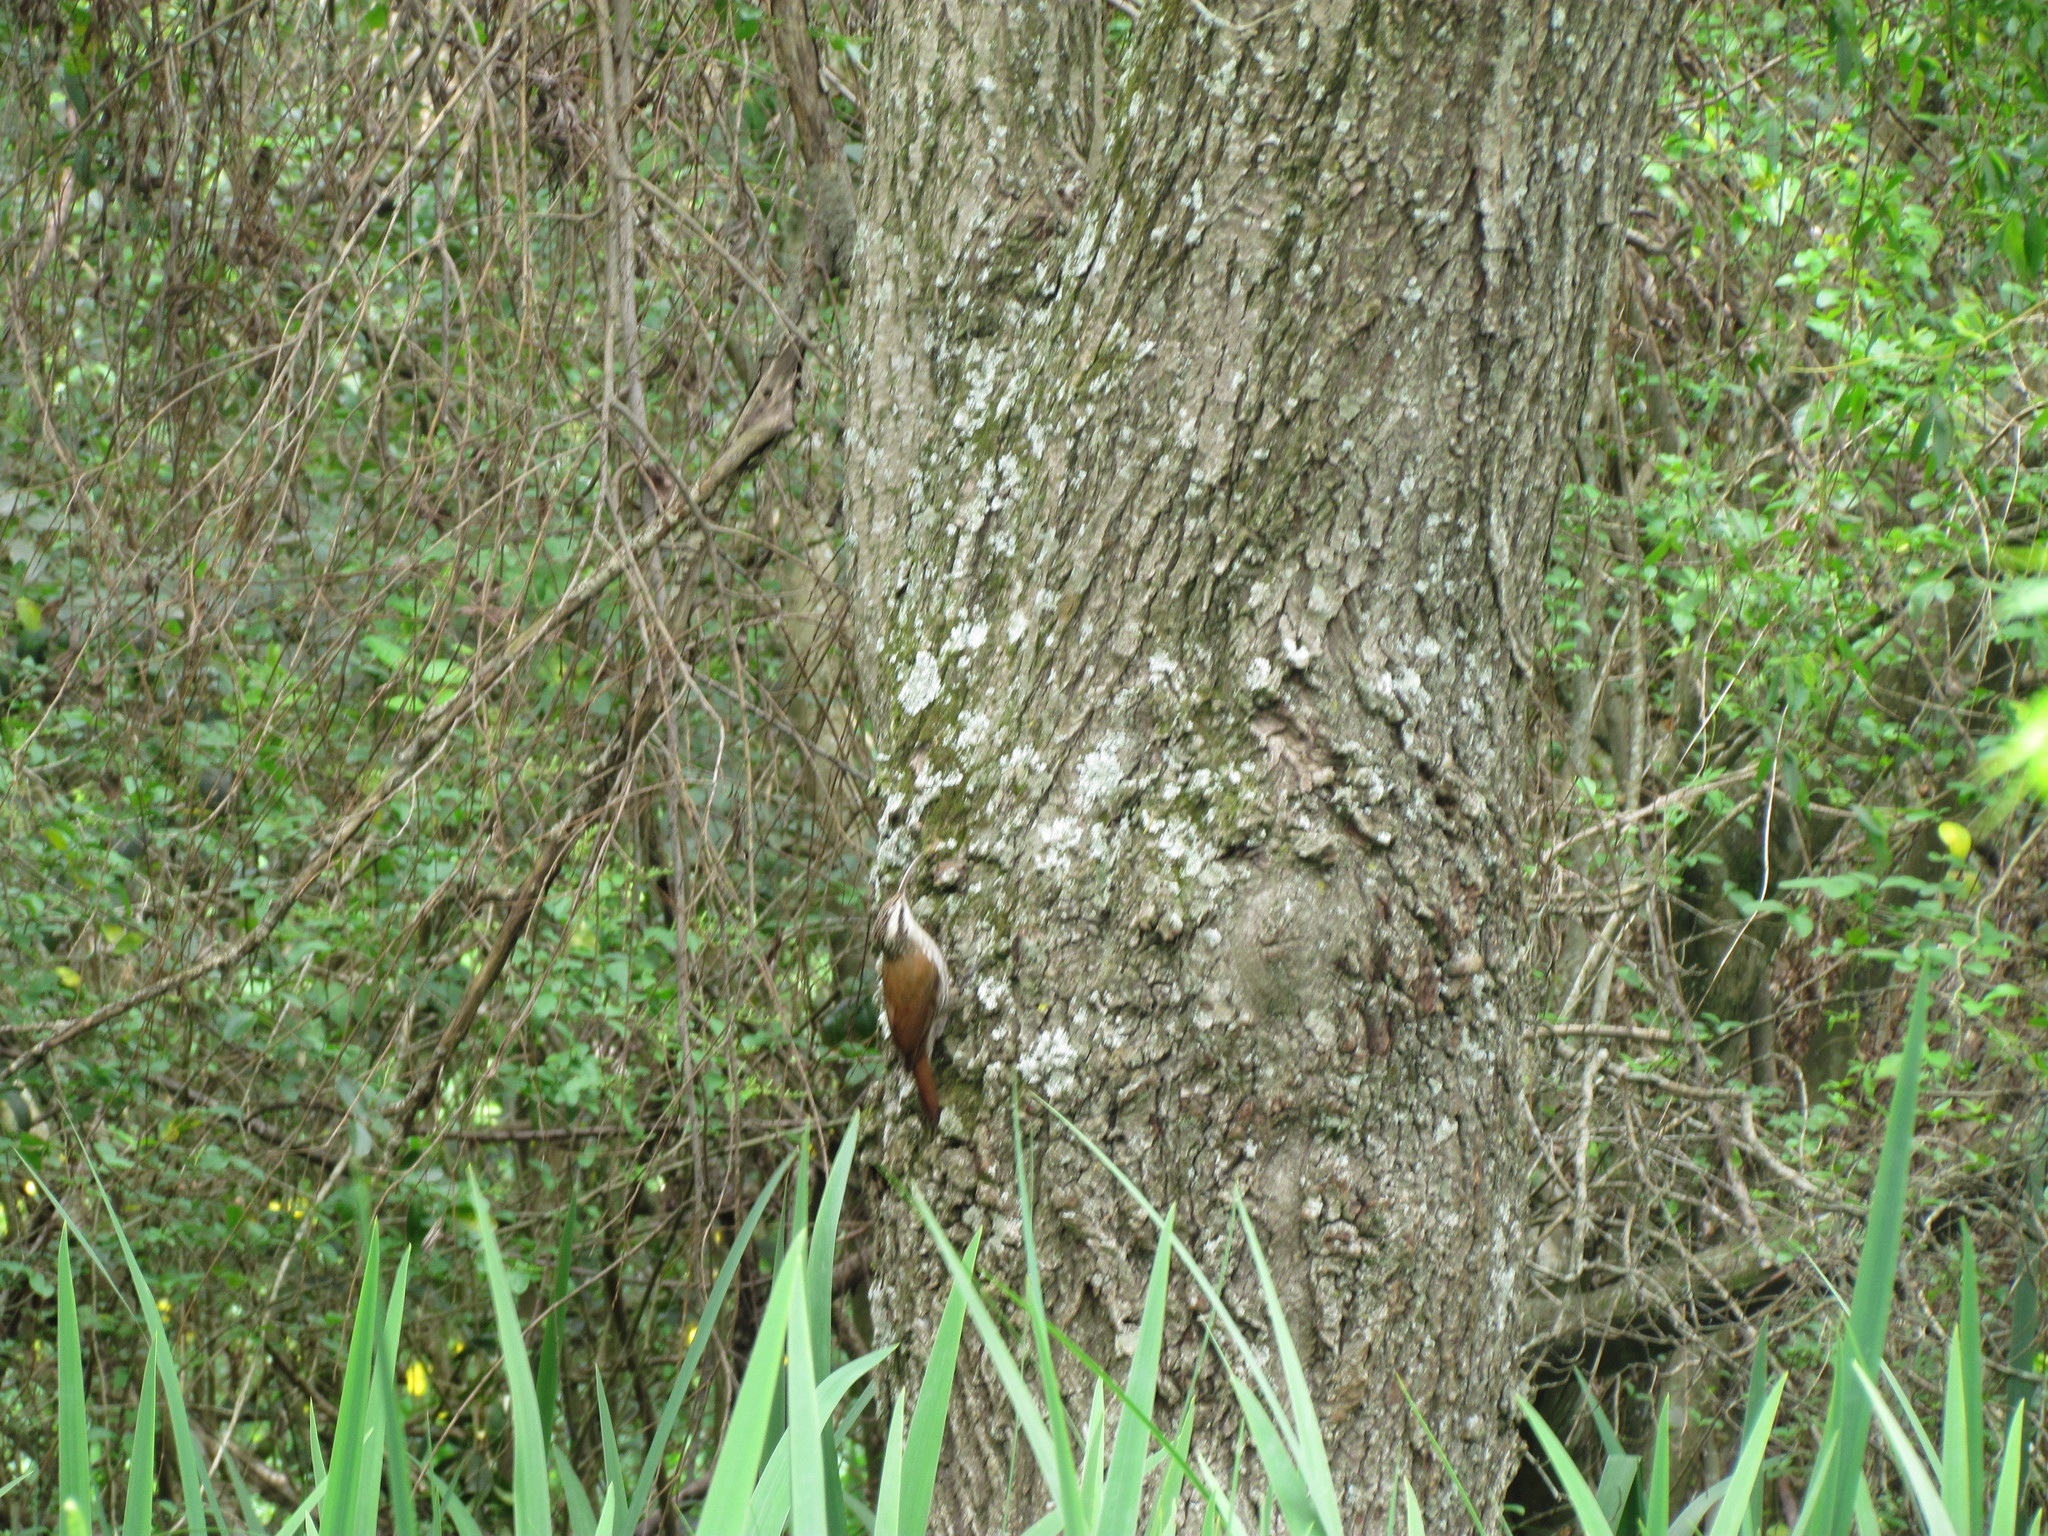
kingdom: Animalia
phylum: Chordata
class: Aves
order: Passeriformes
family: Furnariidae
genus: Lepidocolaptes
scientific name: Lepidocolaptes angustirostris
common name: Narrow-billed woodcreeper
